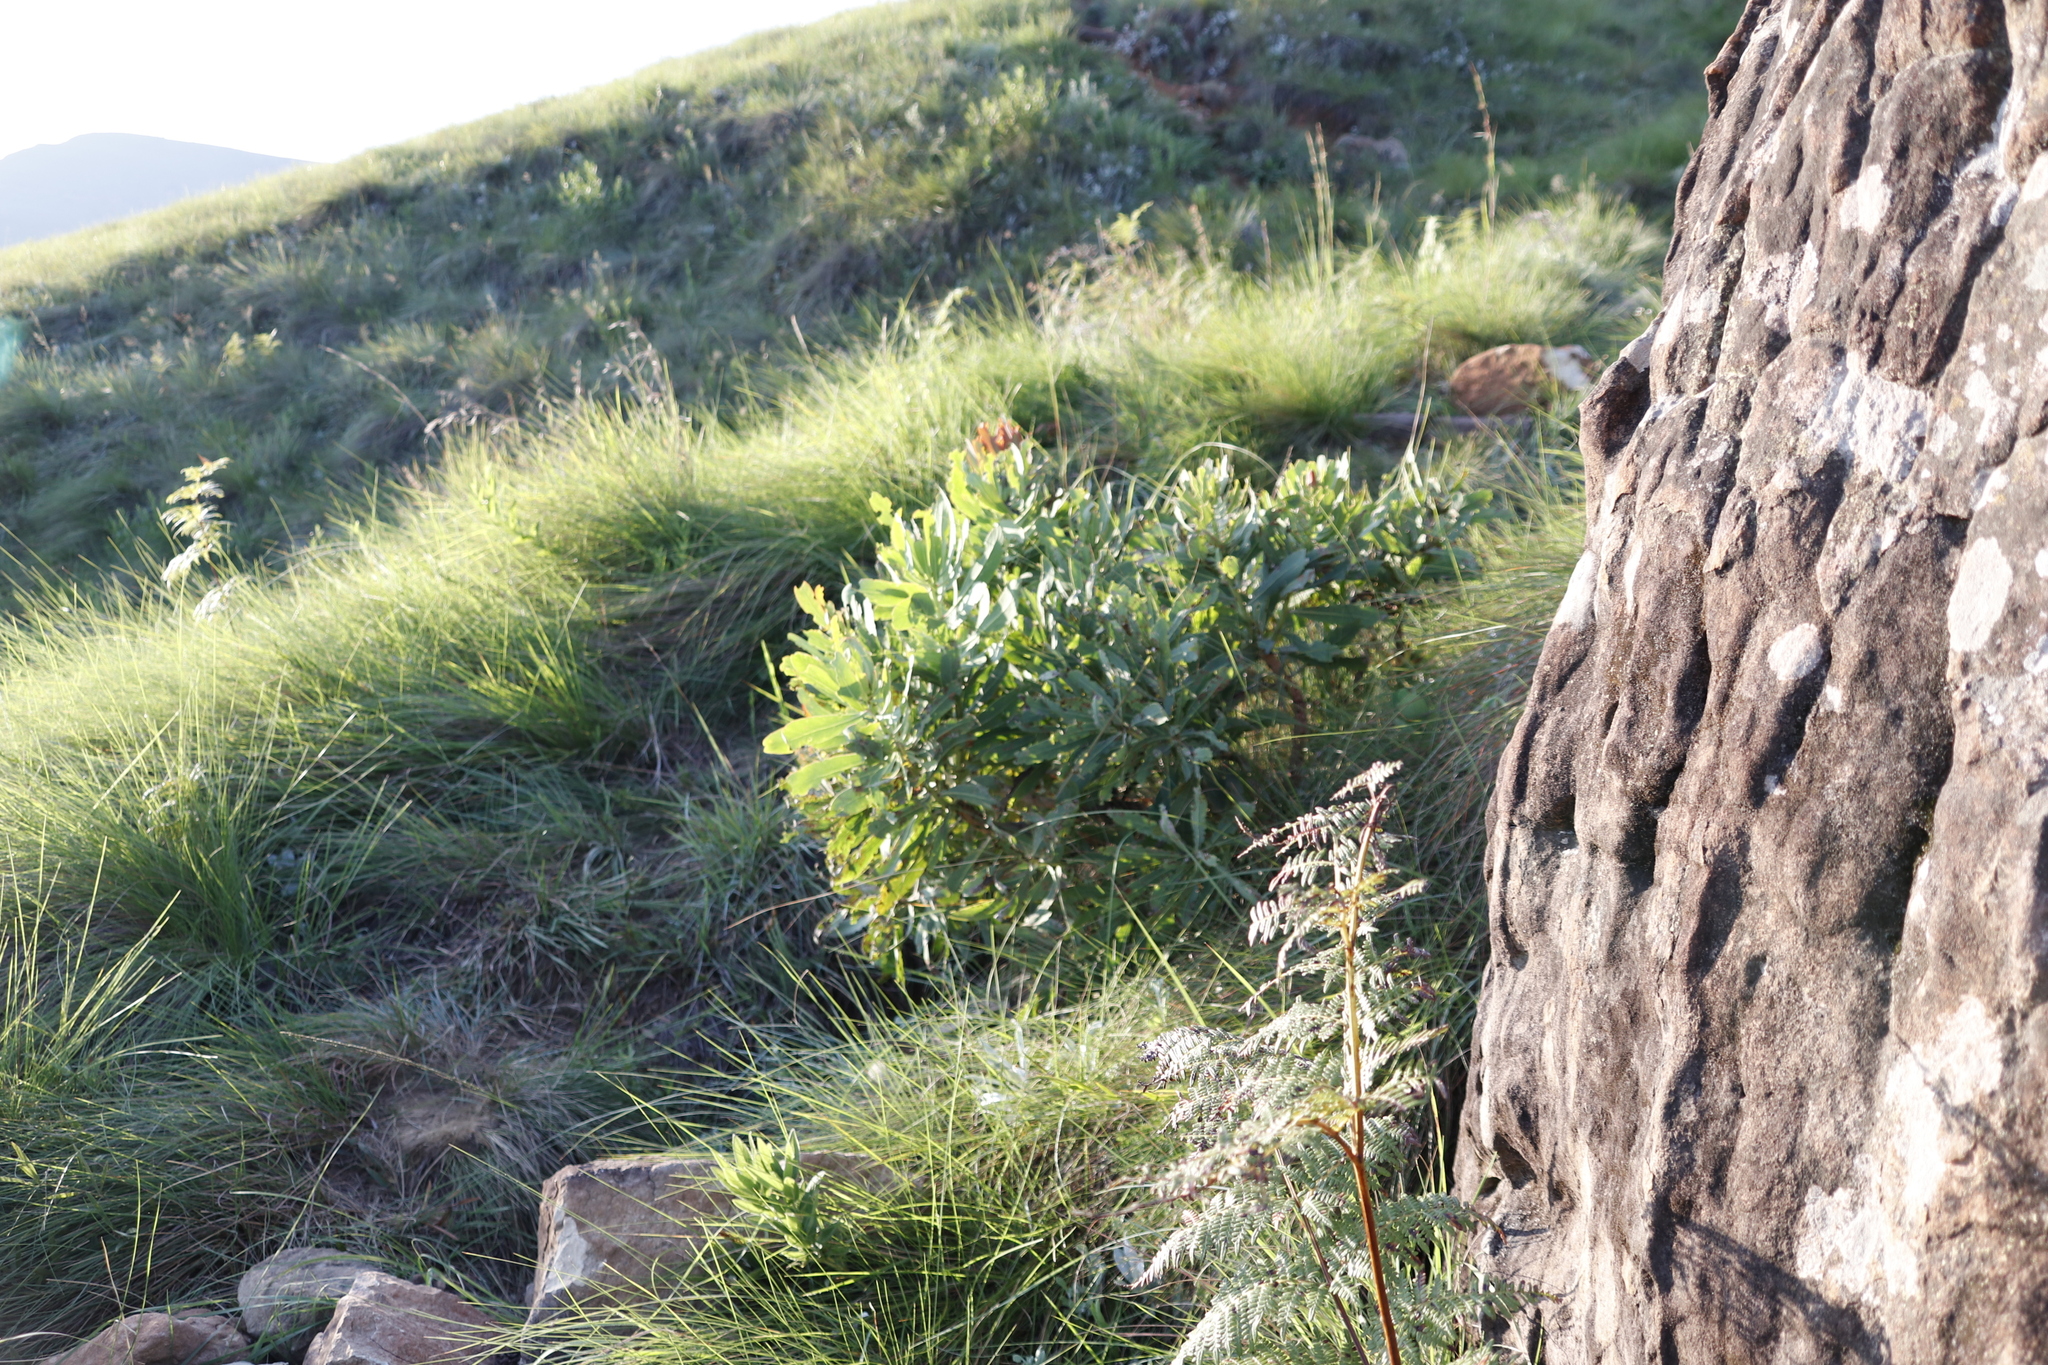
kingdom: Plantae
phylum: Tracheophyta
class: Magnoliopsida
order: Proteales
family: Proteaceae
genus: Protea
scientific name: Protea caffra
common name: Common sugarbush
